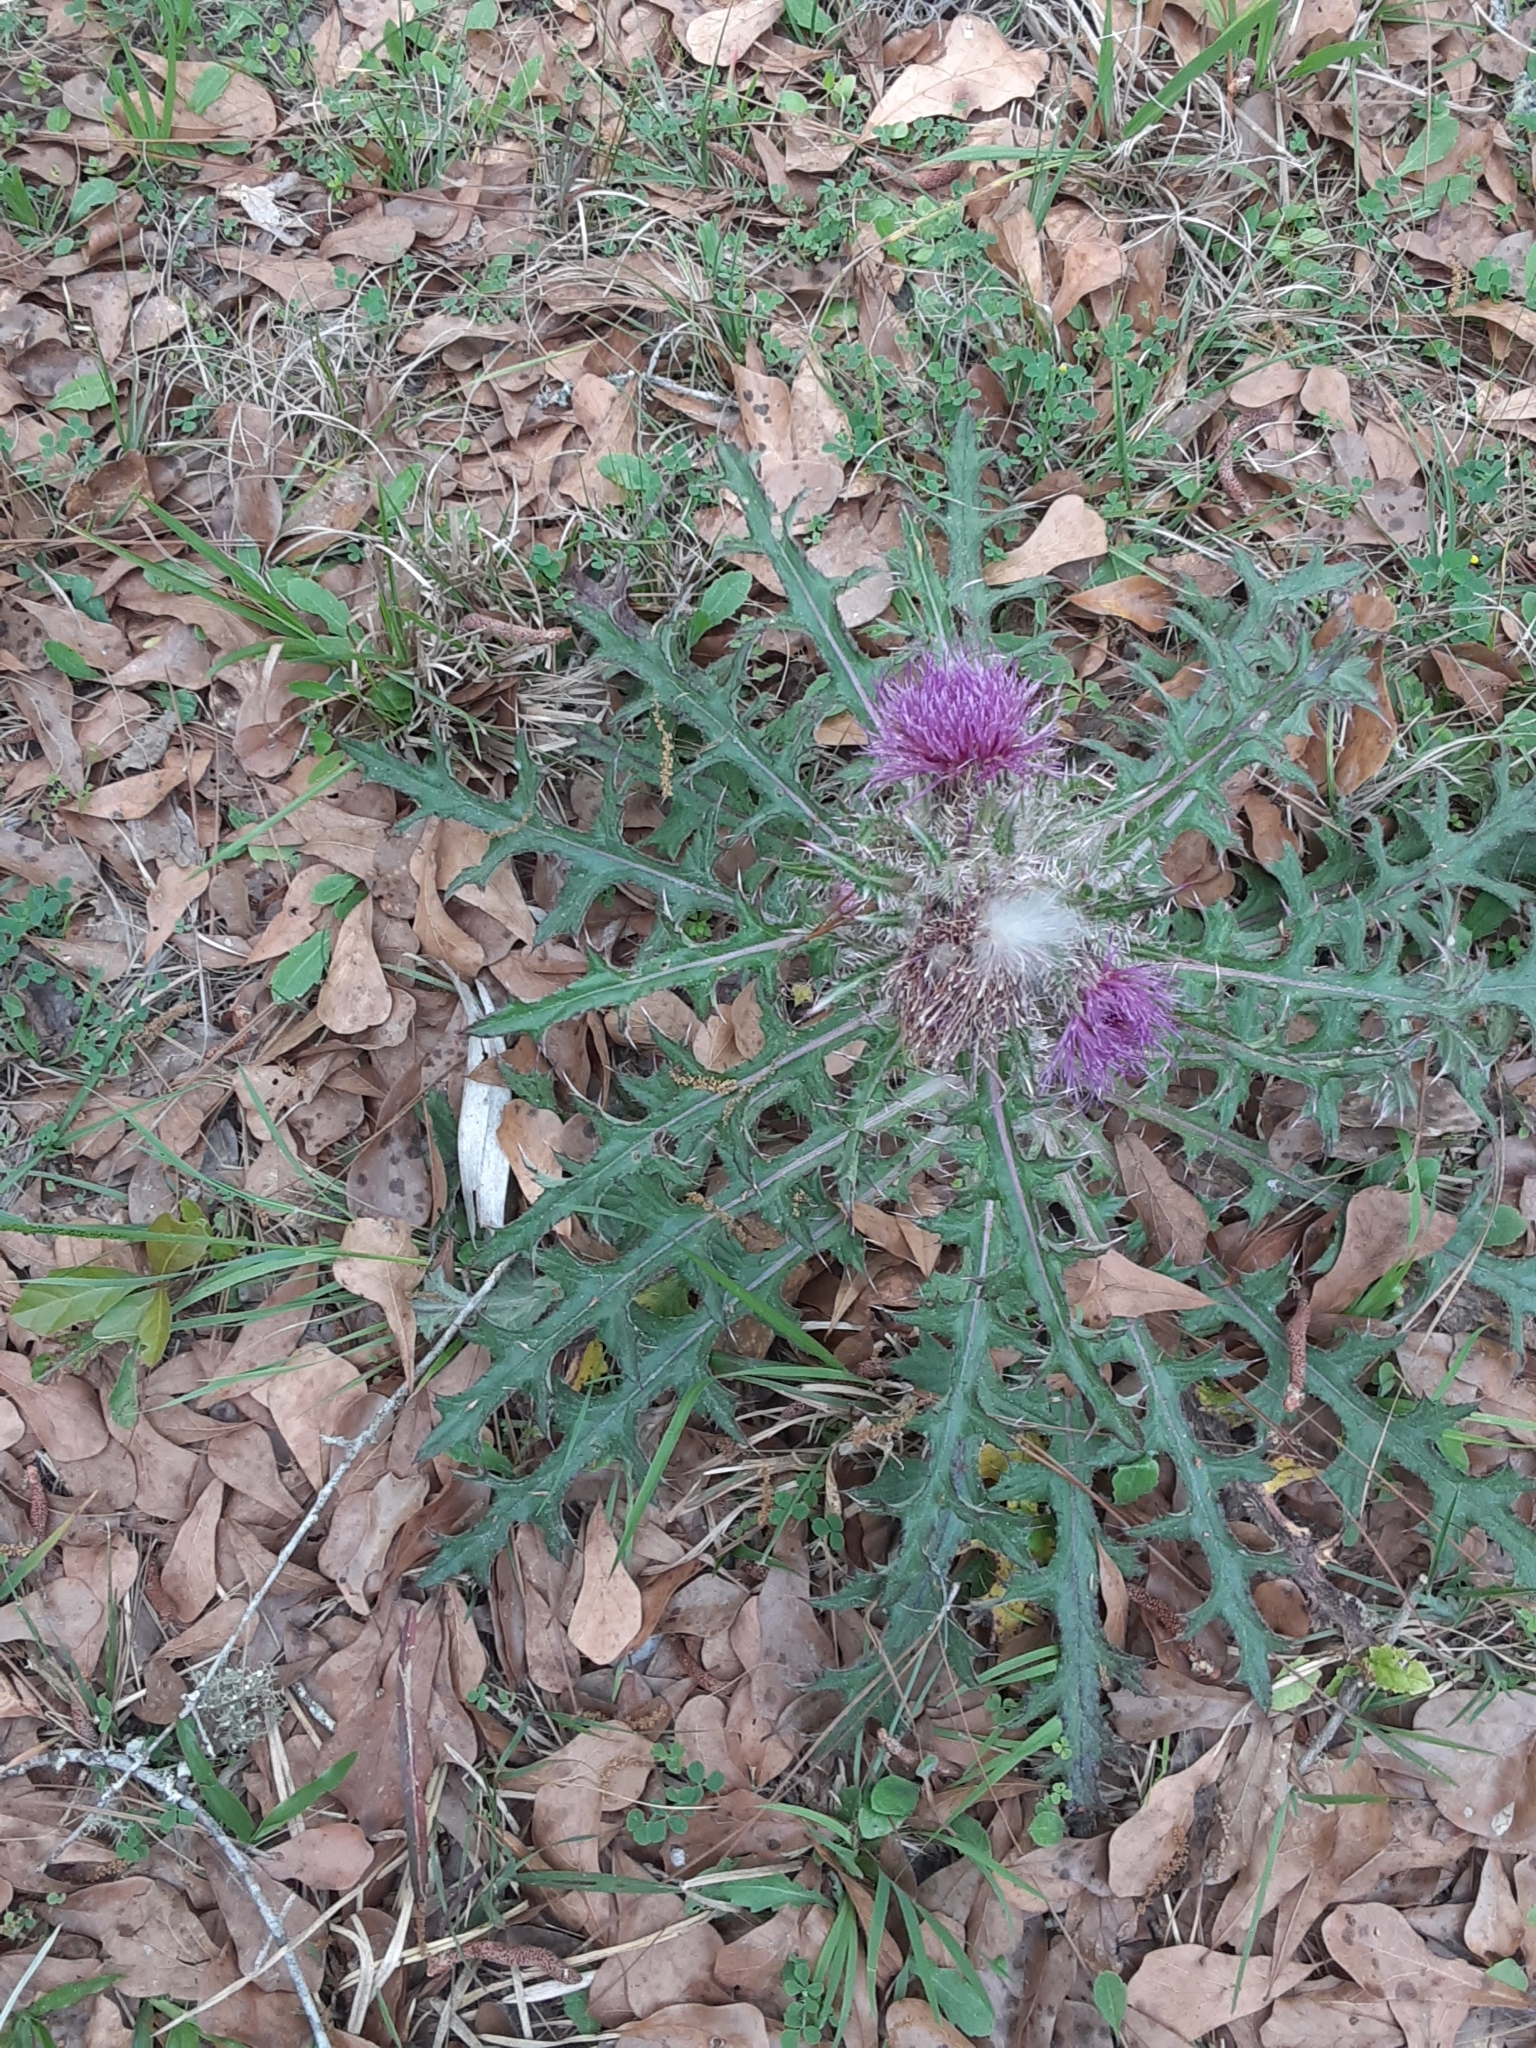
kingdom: Plantae
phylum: Tracheophyta
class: Magnoliopsida
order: Asterales
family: Asteraceae
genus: Cirsium
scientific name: Cirsium horridulum
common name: Bristly thistle
